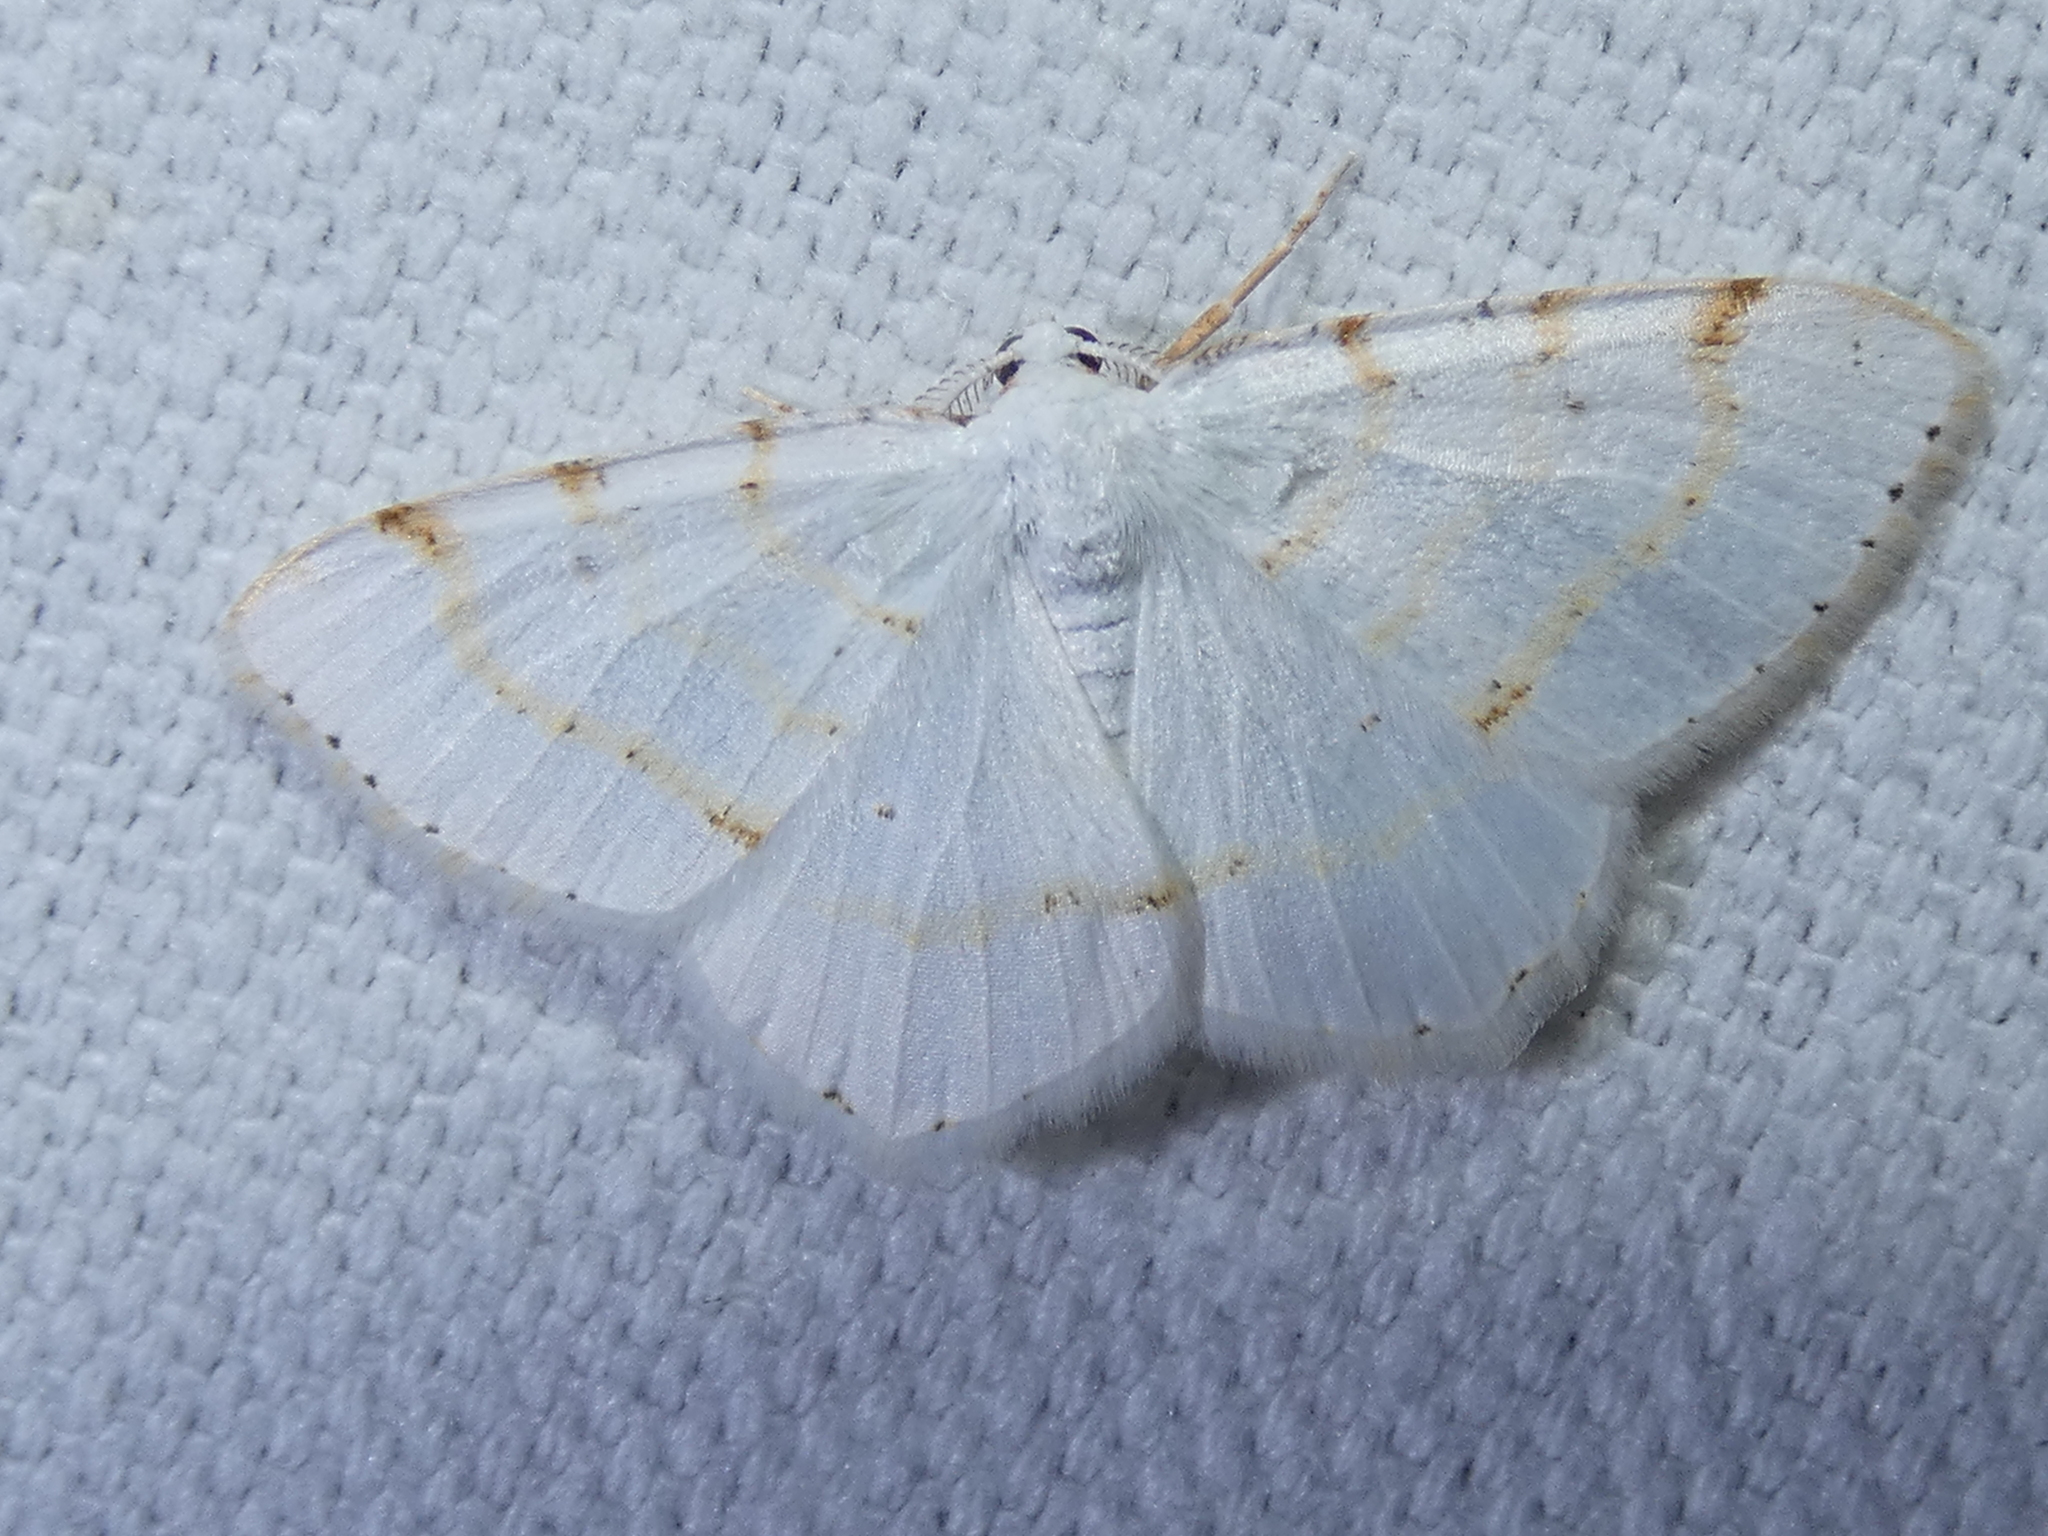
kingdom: Animalia
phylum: Arthropoda
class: Insecta
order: Lepidoptera
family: Geometridae
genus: Macaria
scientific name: Macaria pustularia
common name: Lesser maple spanworm moth
